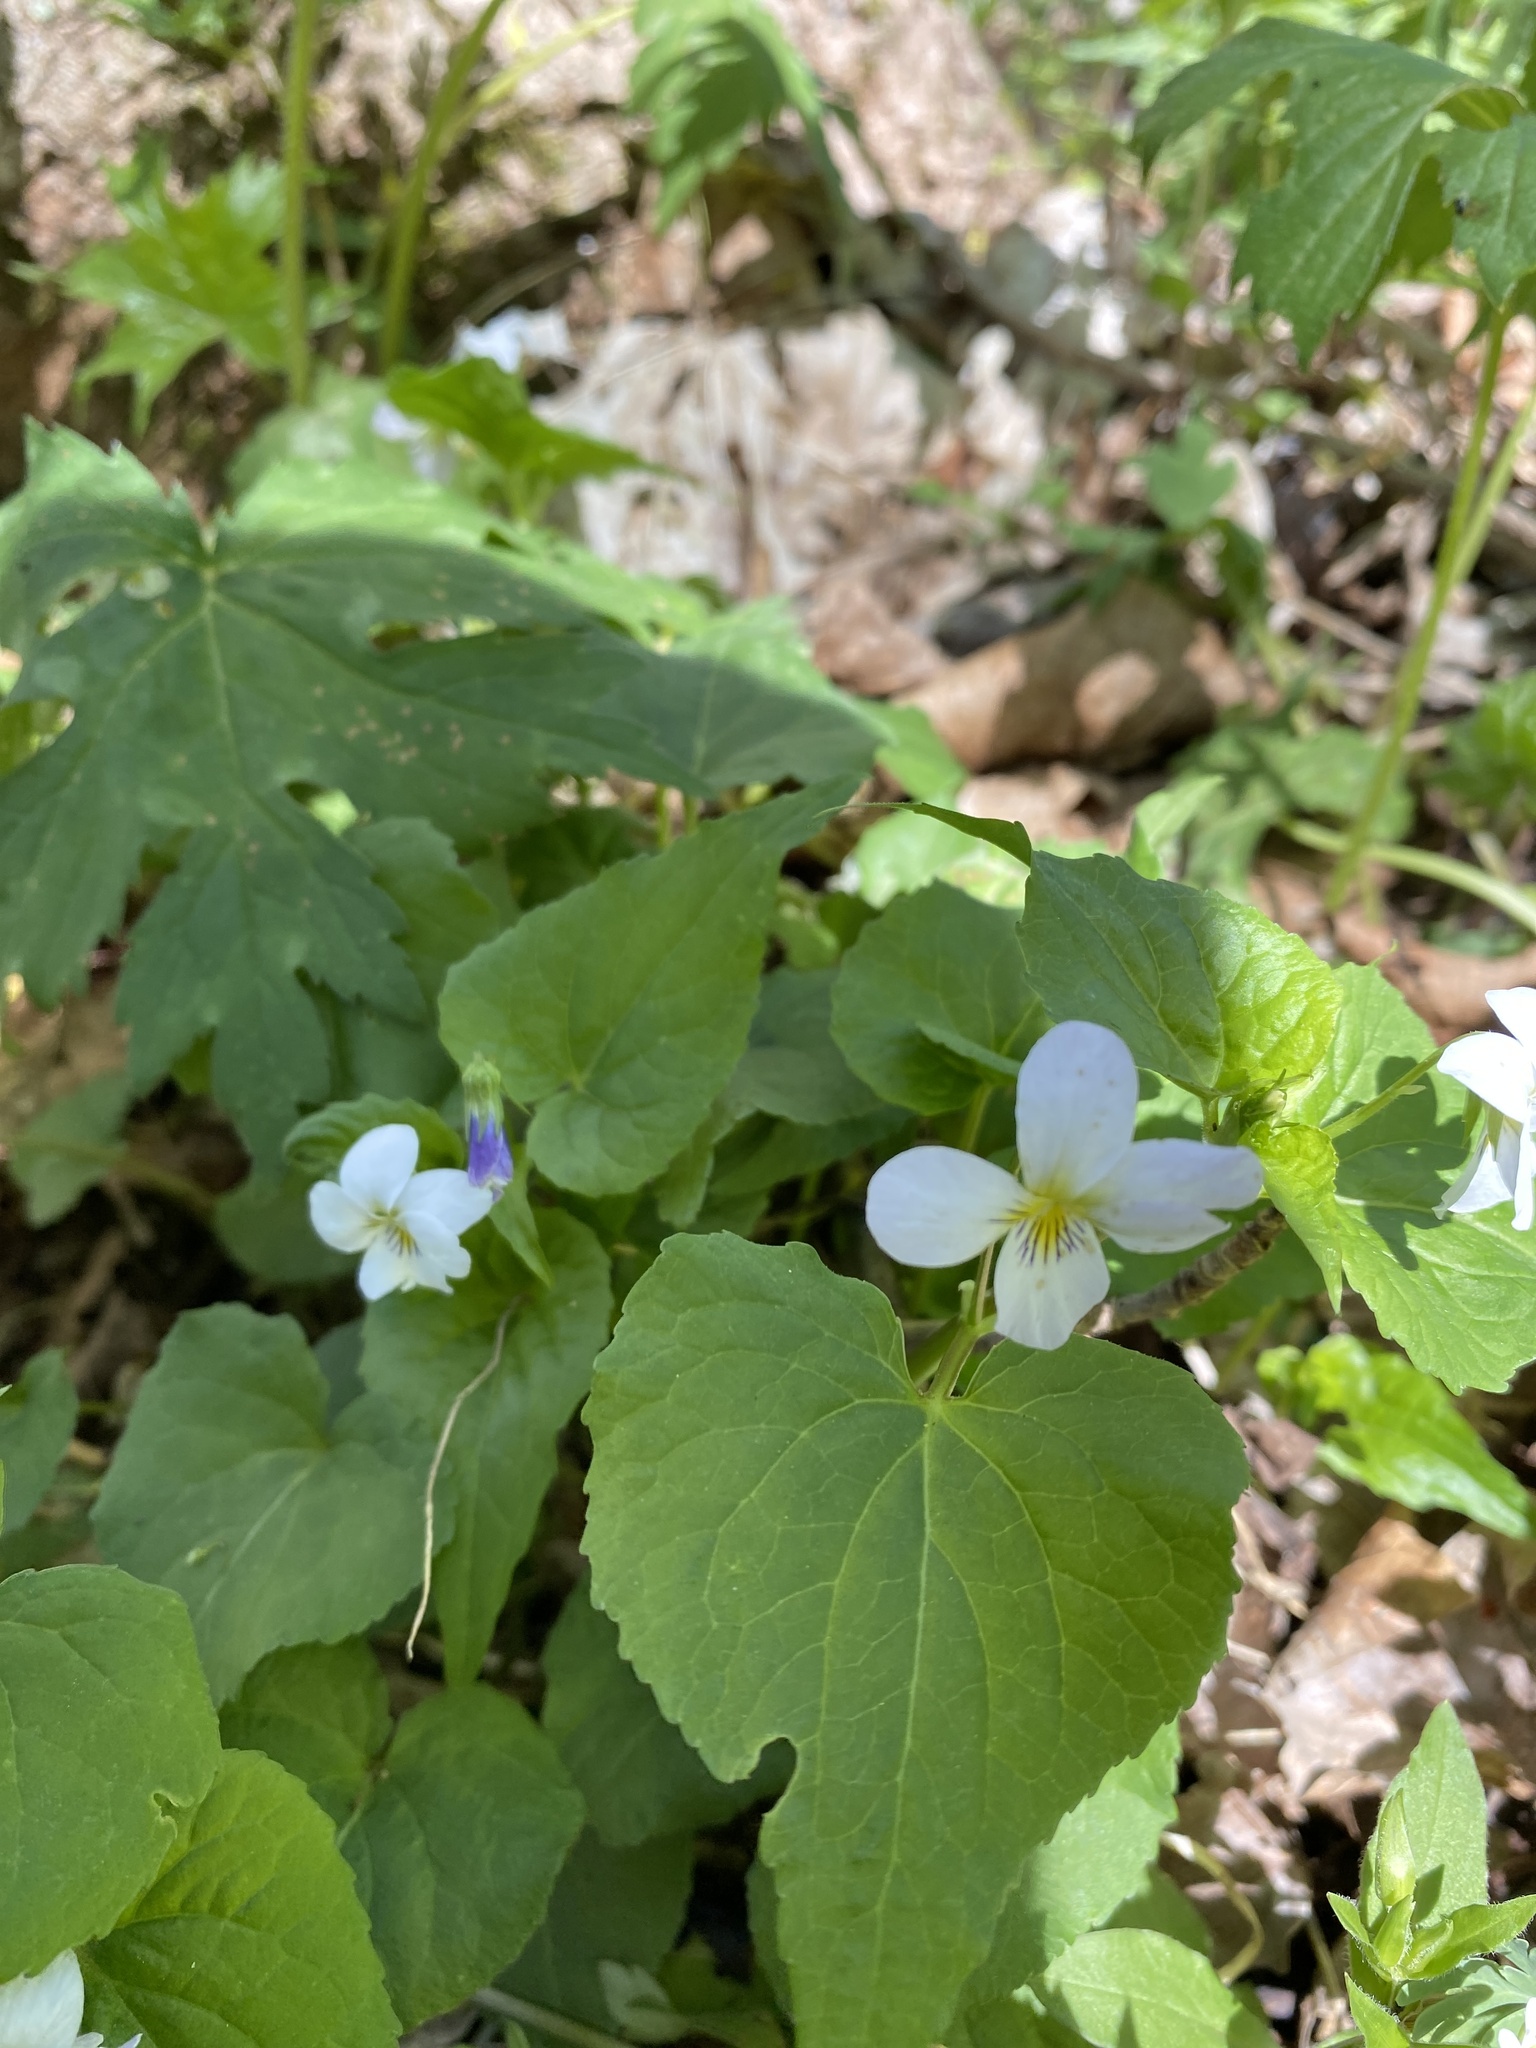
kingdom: Plantae
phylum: Tracheophyta
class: Magnoliopsida
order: Malpighiales
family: Violaceae
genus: Viola
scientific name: Viola canadensis
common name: Canada violet
